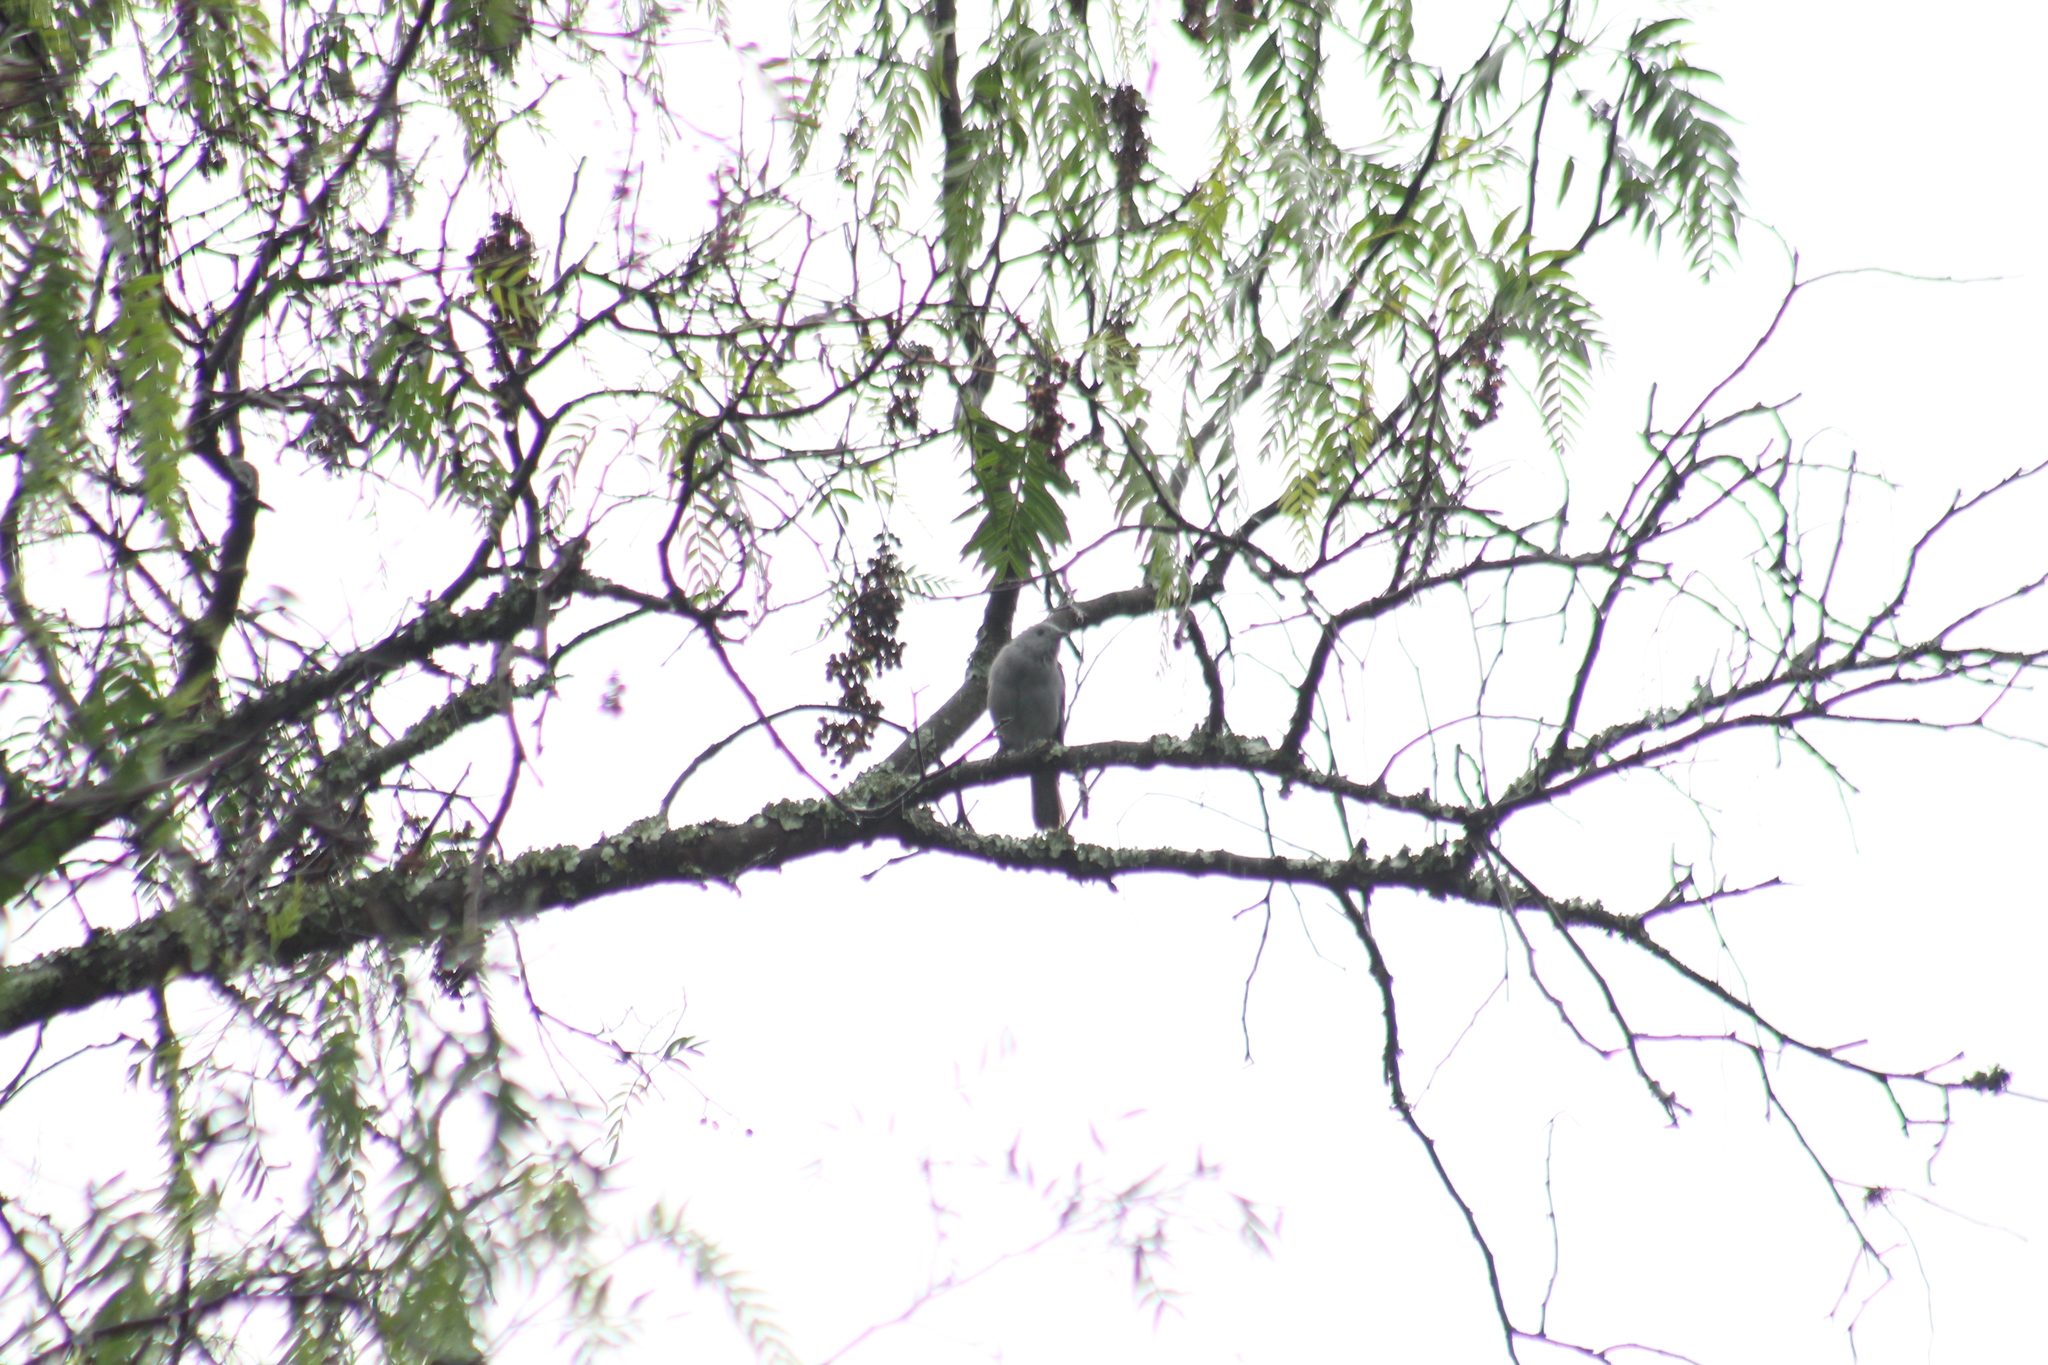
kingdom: Animalia
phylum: Chordata
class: Aves
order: Passeriformes
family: Thraupidae
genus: Thraupis
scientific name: Thraupis episcopus
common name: Blue-grey tanager
